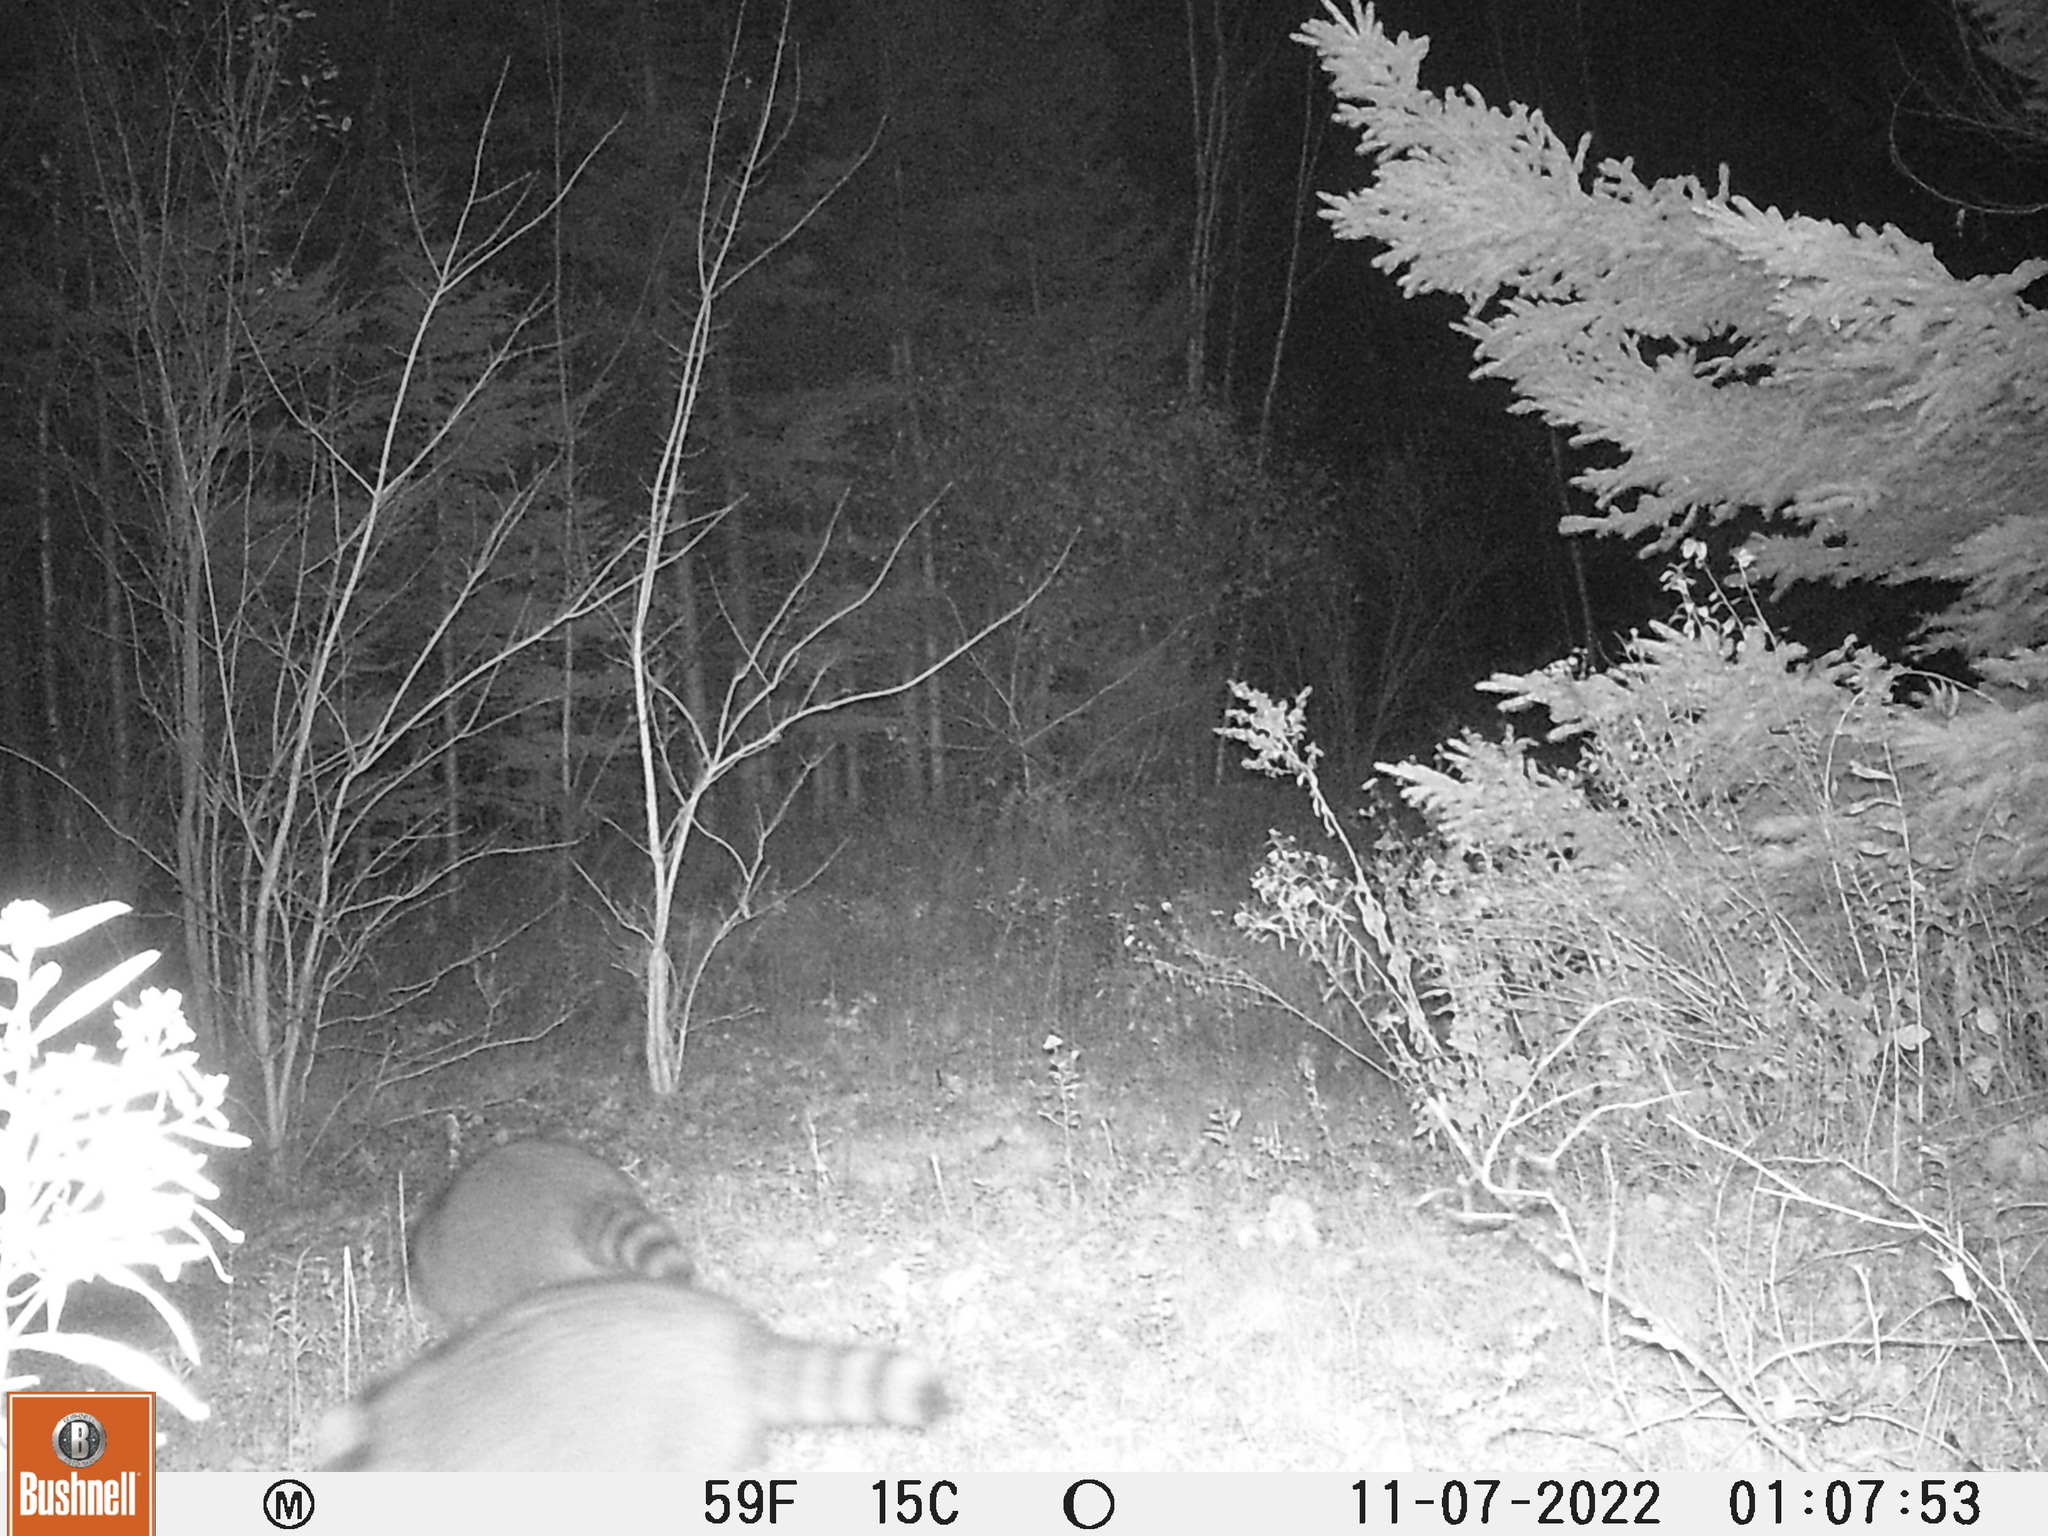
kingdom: Animalia
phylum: Chordata
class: Mammalia
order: Carnivora
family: Procyonidae
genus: Procyon
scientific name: Procyon lotor
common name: Raccoon
